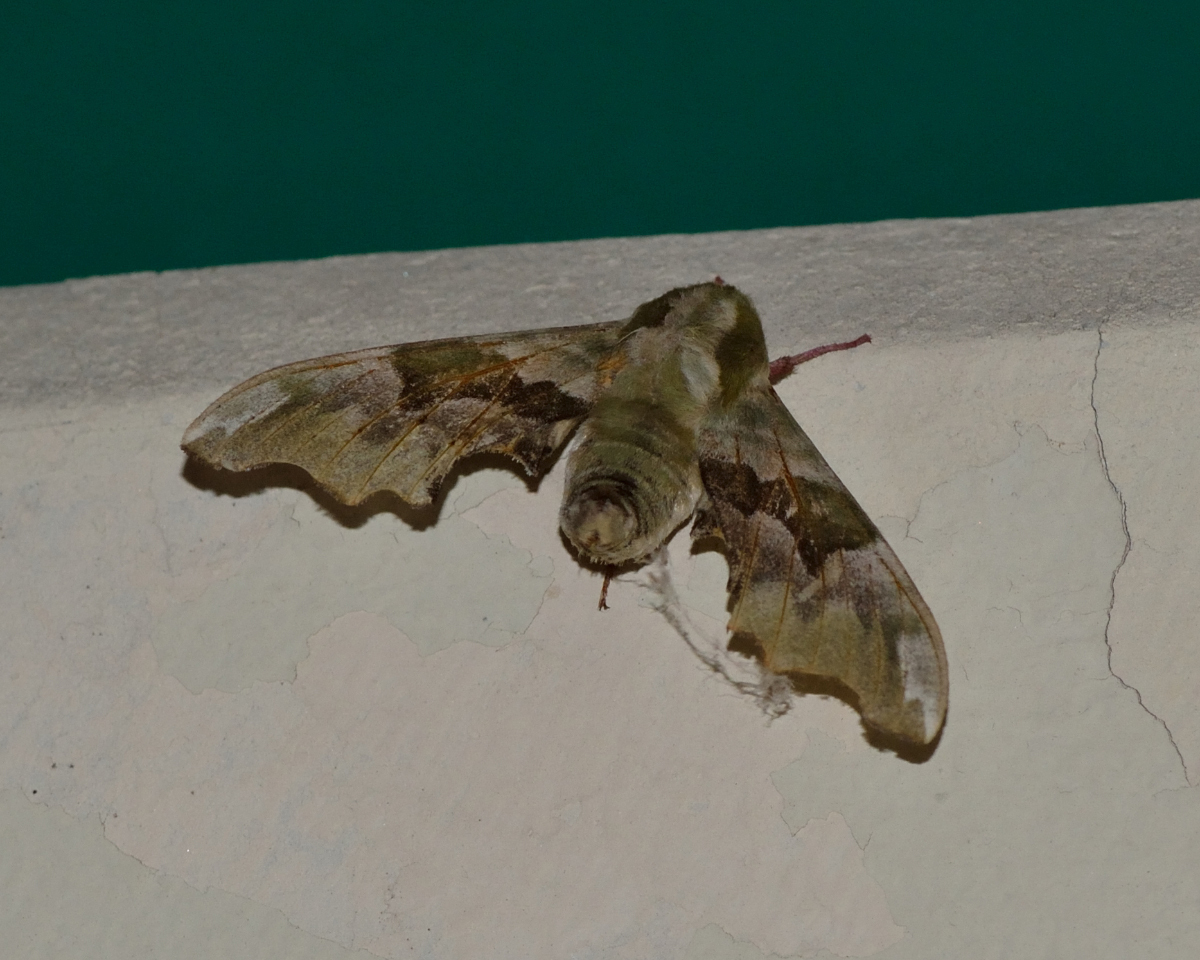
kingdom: Animalia
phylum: Arthropoda
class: Insecta
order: Lepidoptera
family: Sphingidae
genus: Mimas
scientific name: Mimas tiliae
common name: Lime hawk-moth
